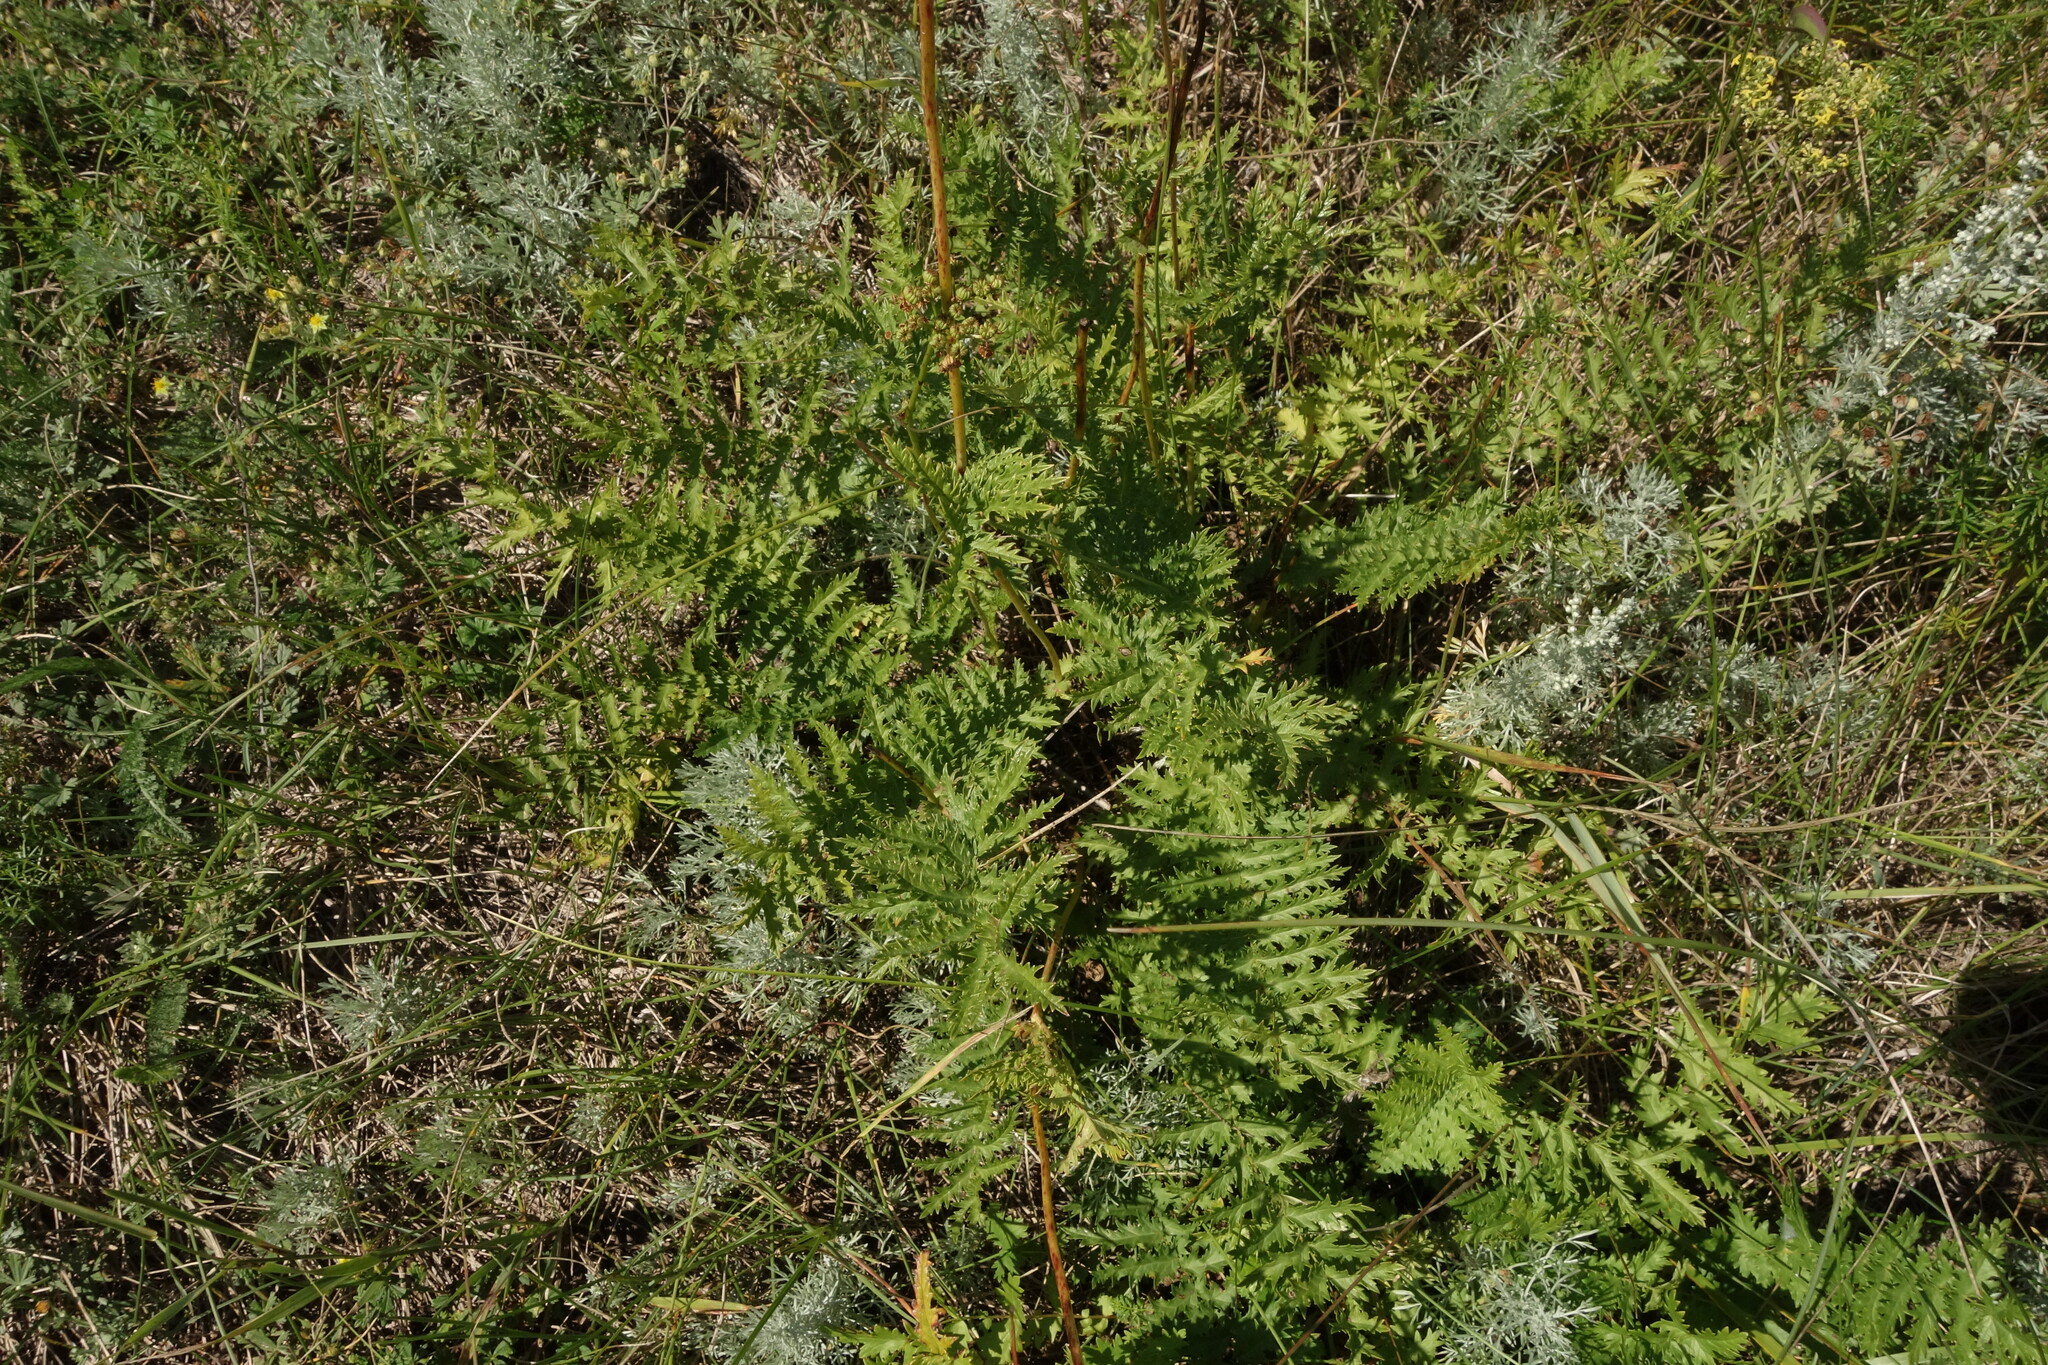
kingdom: Plantae
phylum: Tracheophyta
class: Magnoliopsida
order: Rosales
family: Rosaceae
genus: Filipendula
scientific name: Filipendula vulgaris
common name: Dropwort
